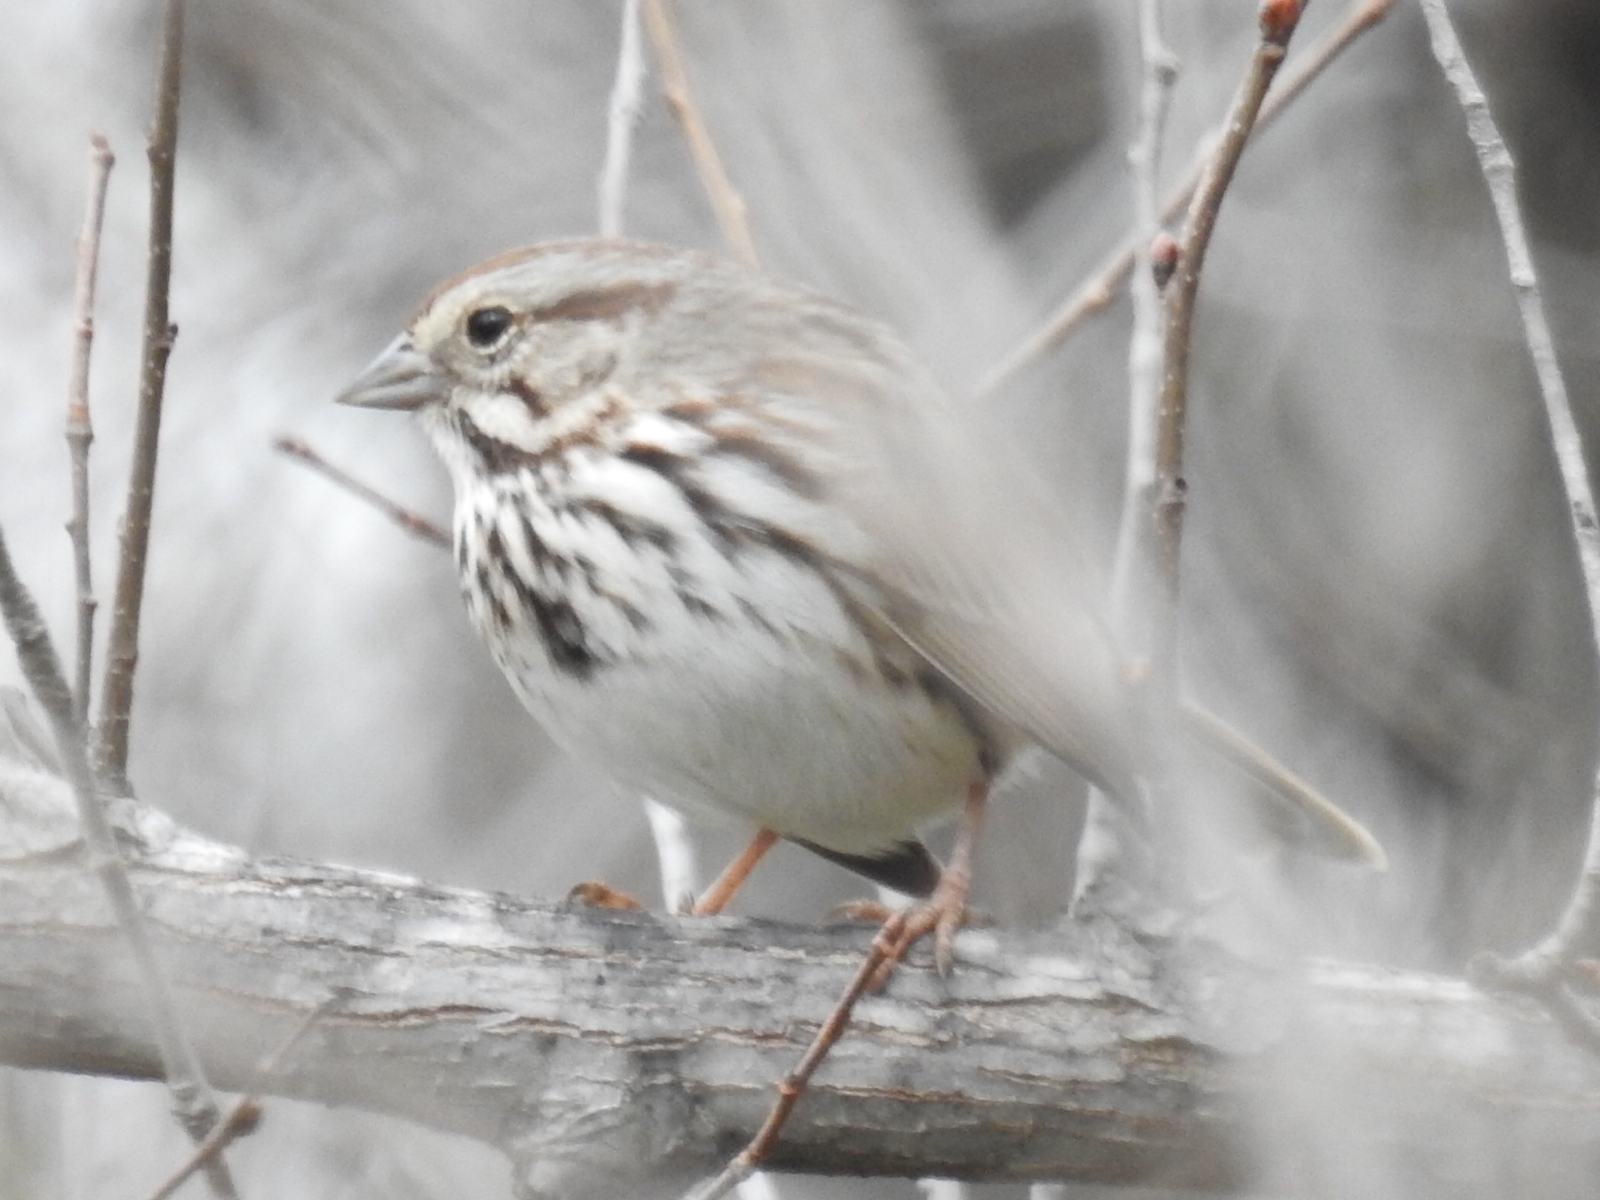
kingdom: Animalia
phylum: Chordata
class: Aves
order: Passeriformes
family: Passerellidae
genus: Melospiza
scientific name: Melospiza melodia
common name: Song sparrow
